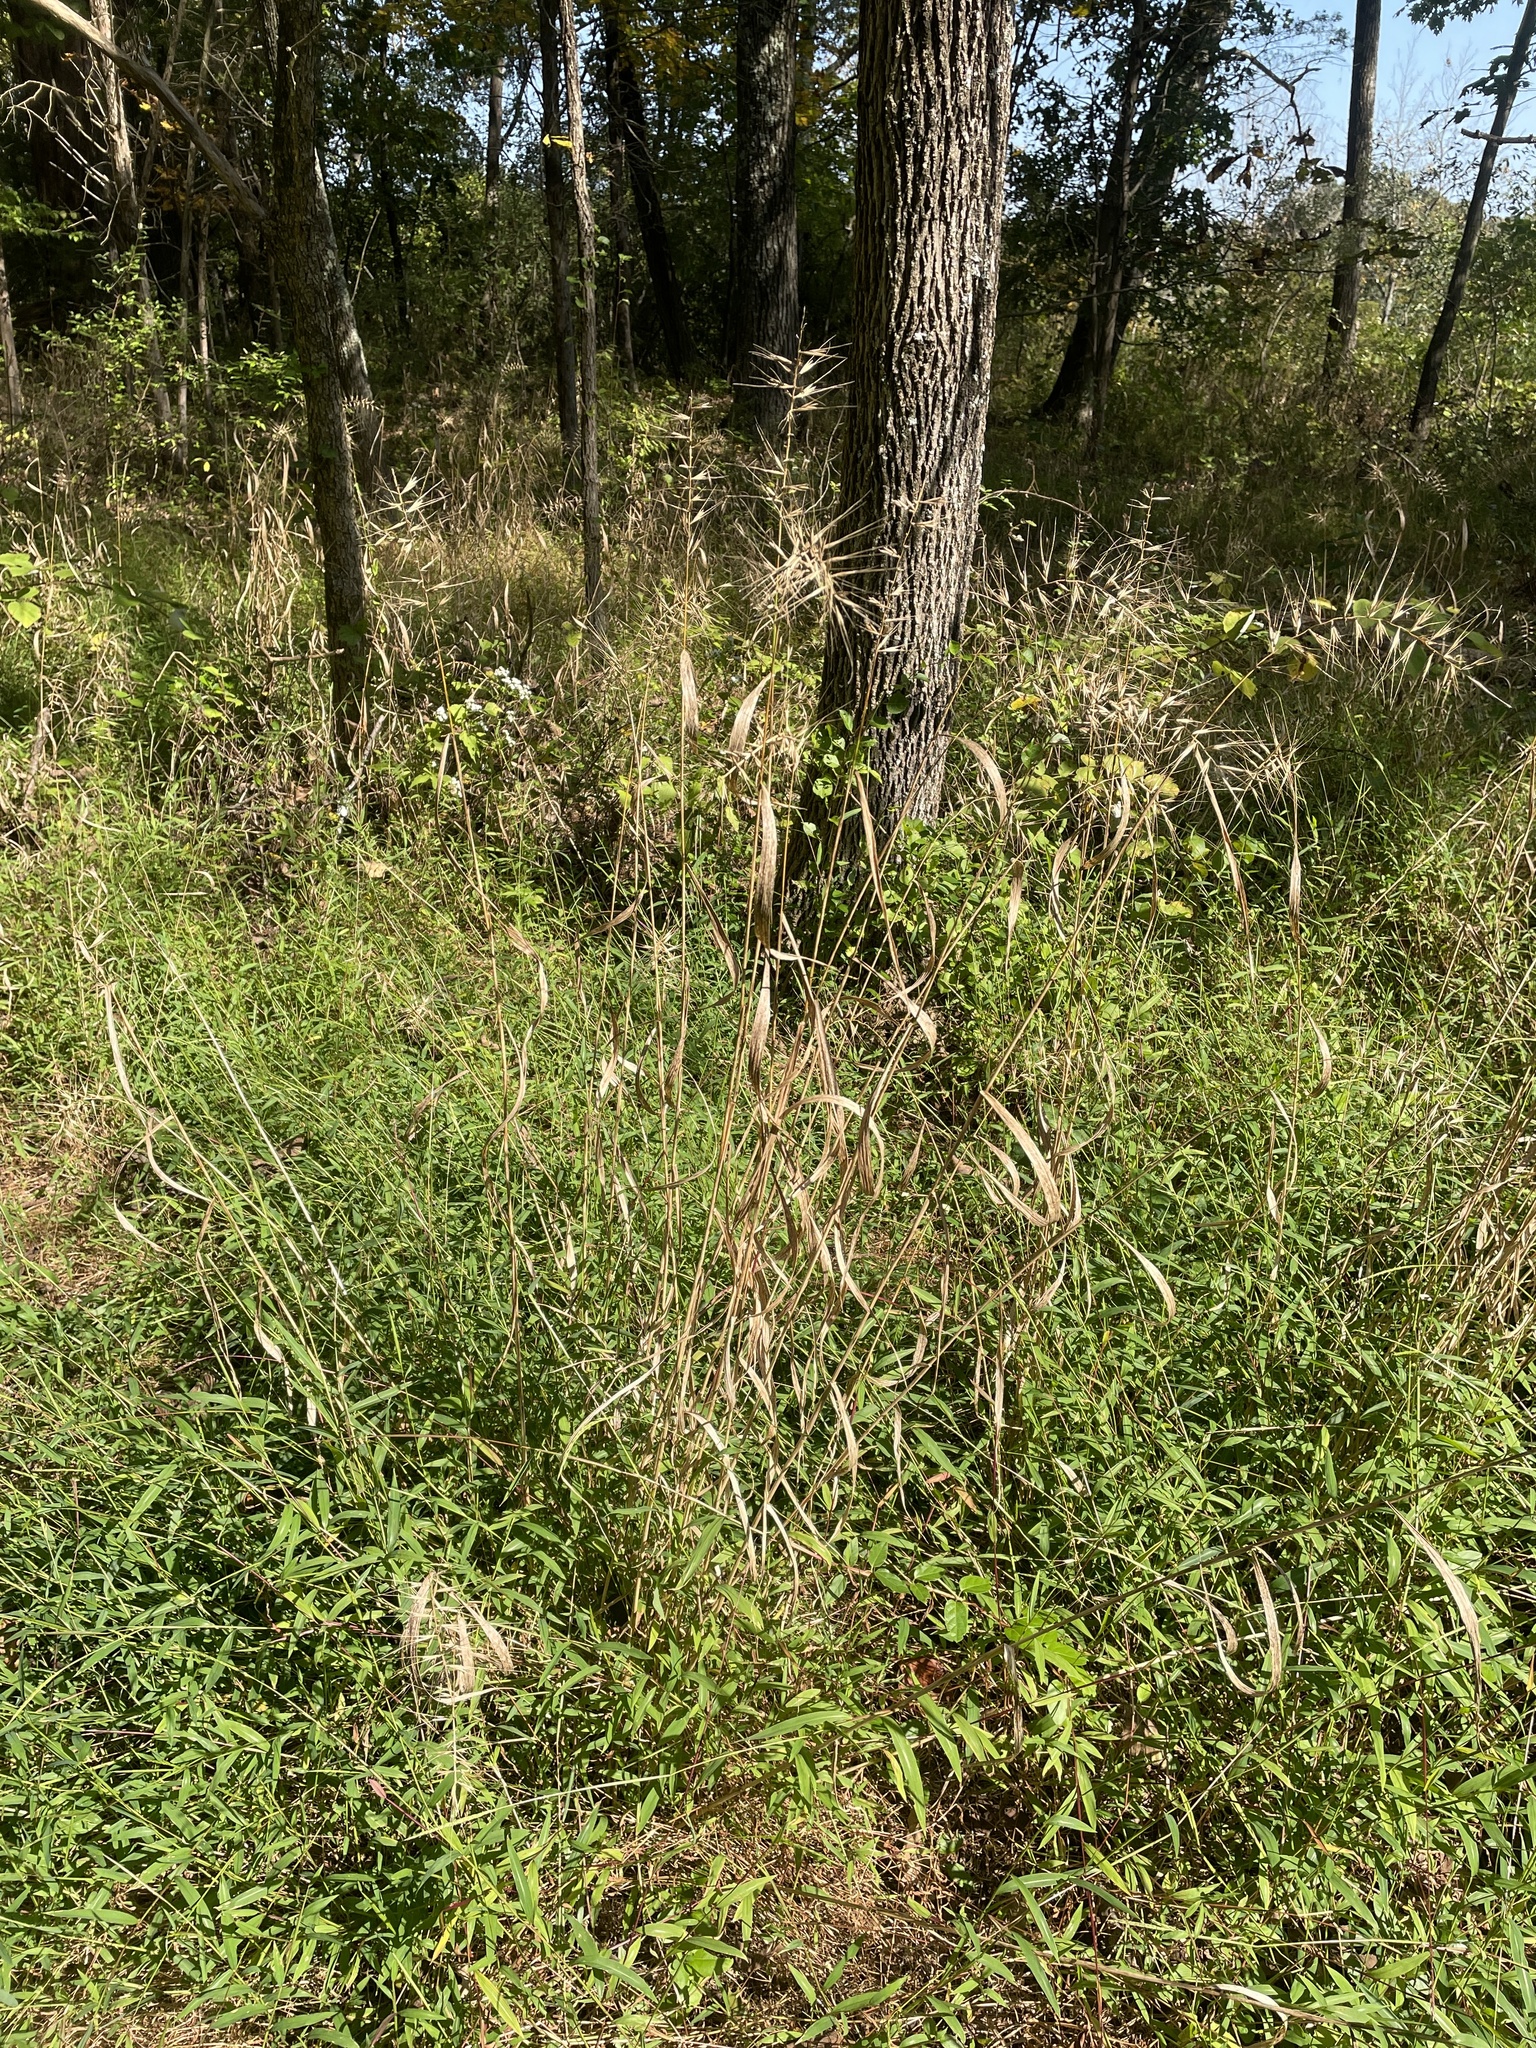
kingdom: Plantae
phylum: Tracheophyta
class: Liliopsida
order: Poales
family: Poaceae
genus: Elymus
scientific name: Elymus hystrix
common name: Bottlebrush grass
